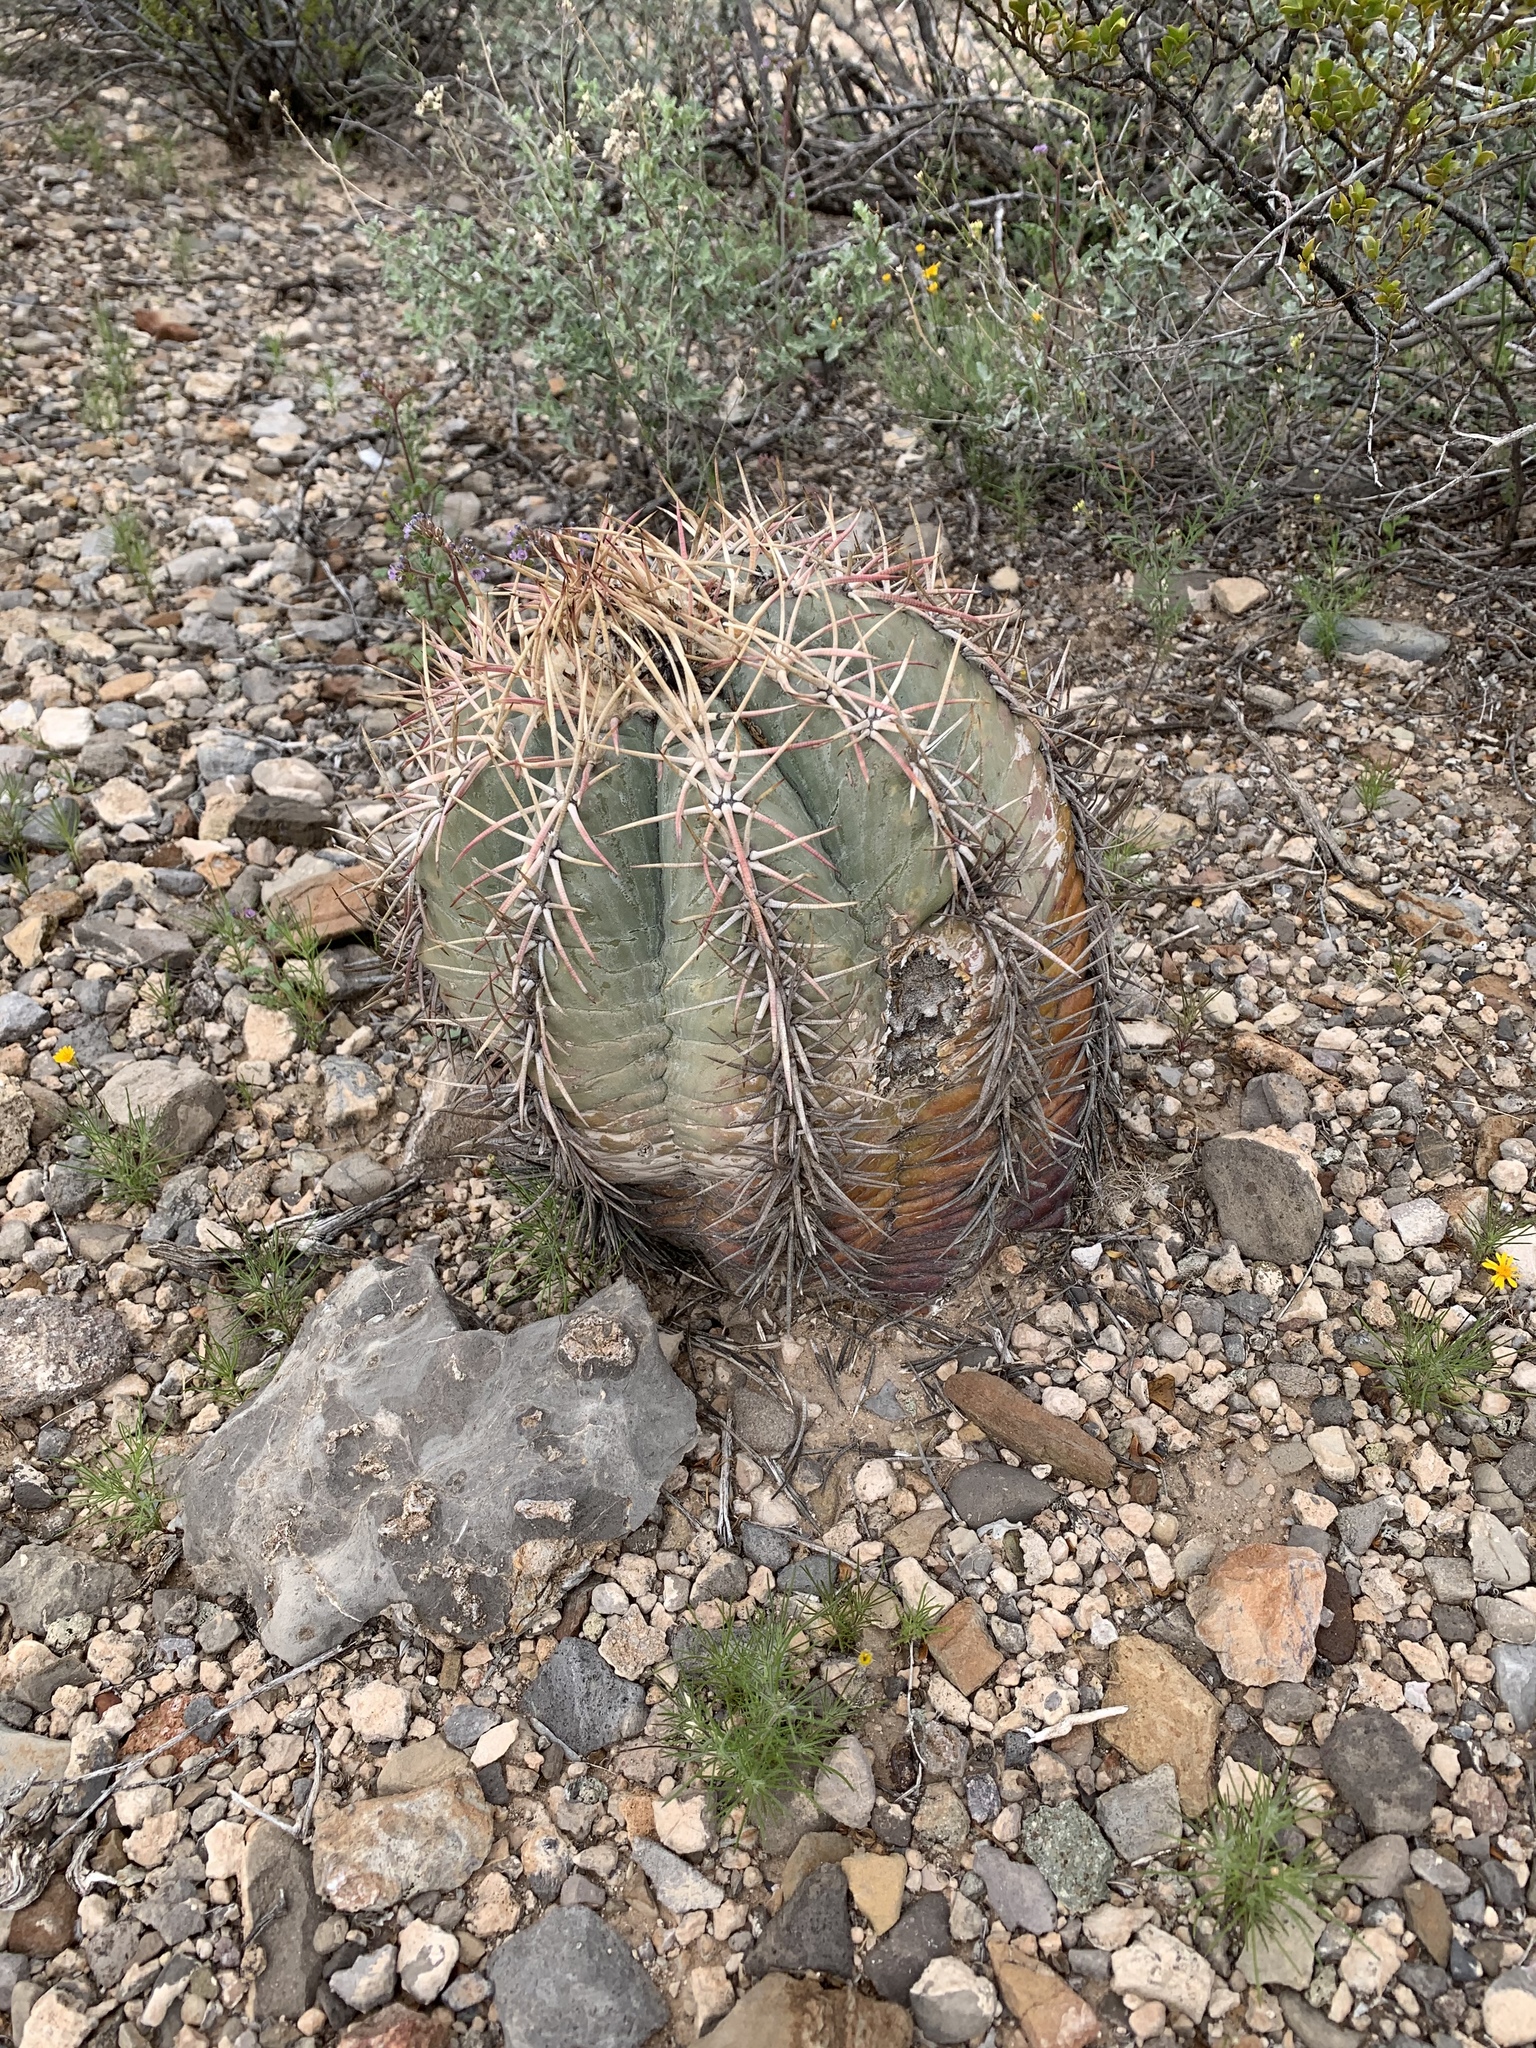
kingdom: Plantae
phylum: Tracheophyta
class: Magnoliopsida
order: Caryophyllales
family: Cactaceae
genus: Echinocactus
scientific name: Echinocactus horizonthalonius
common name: Devilshead
